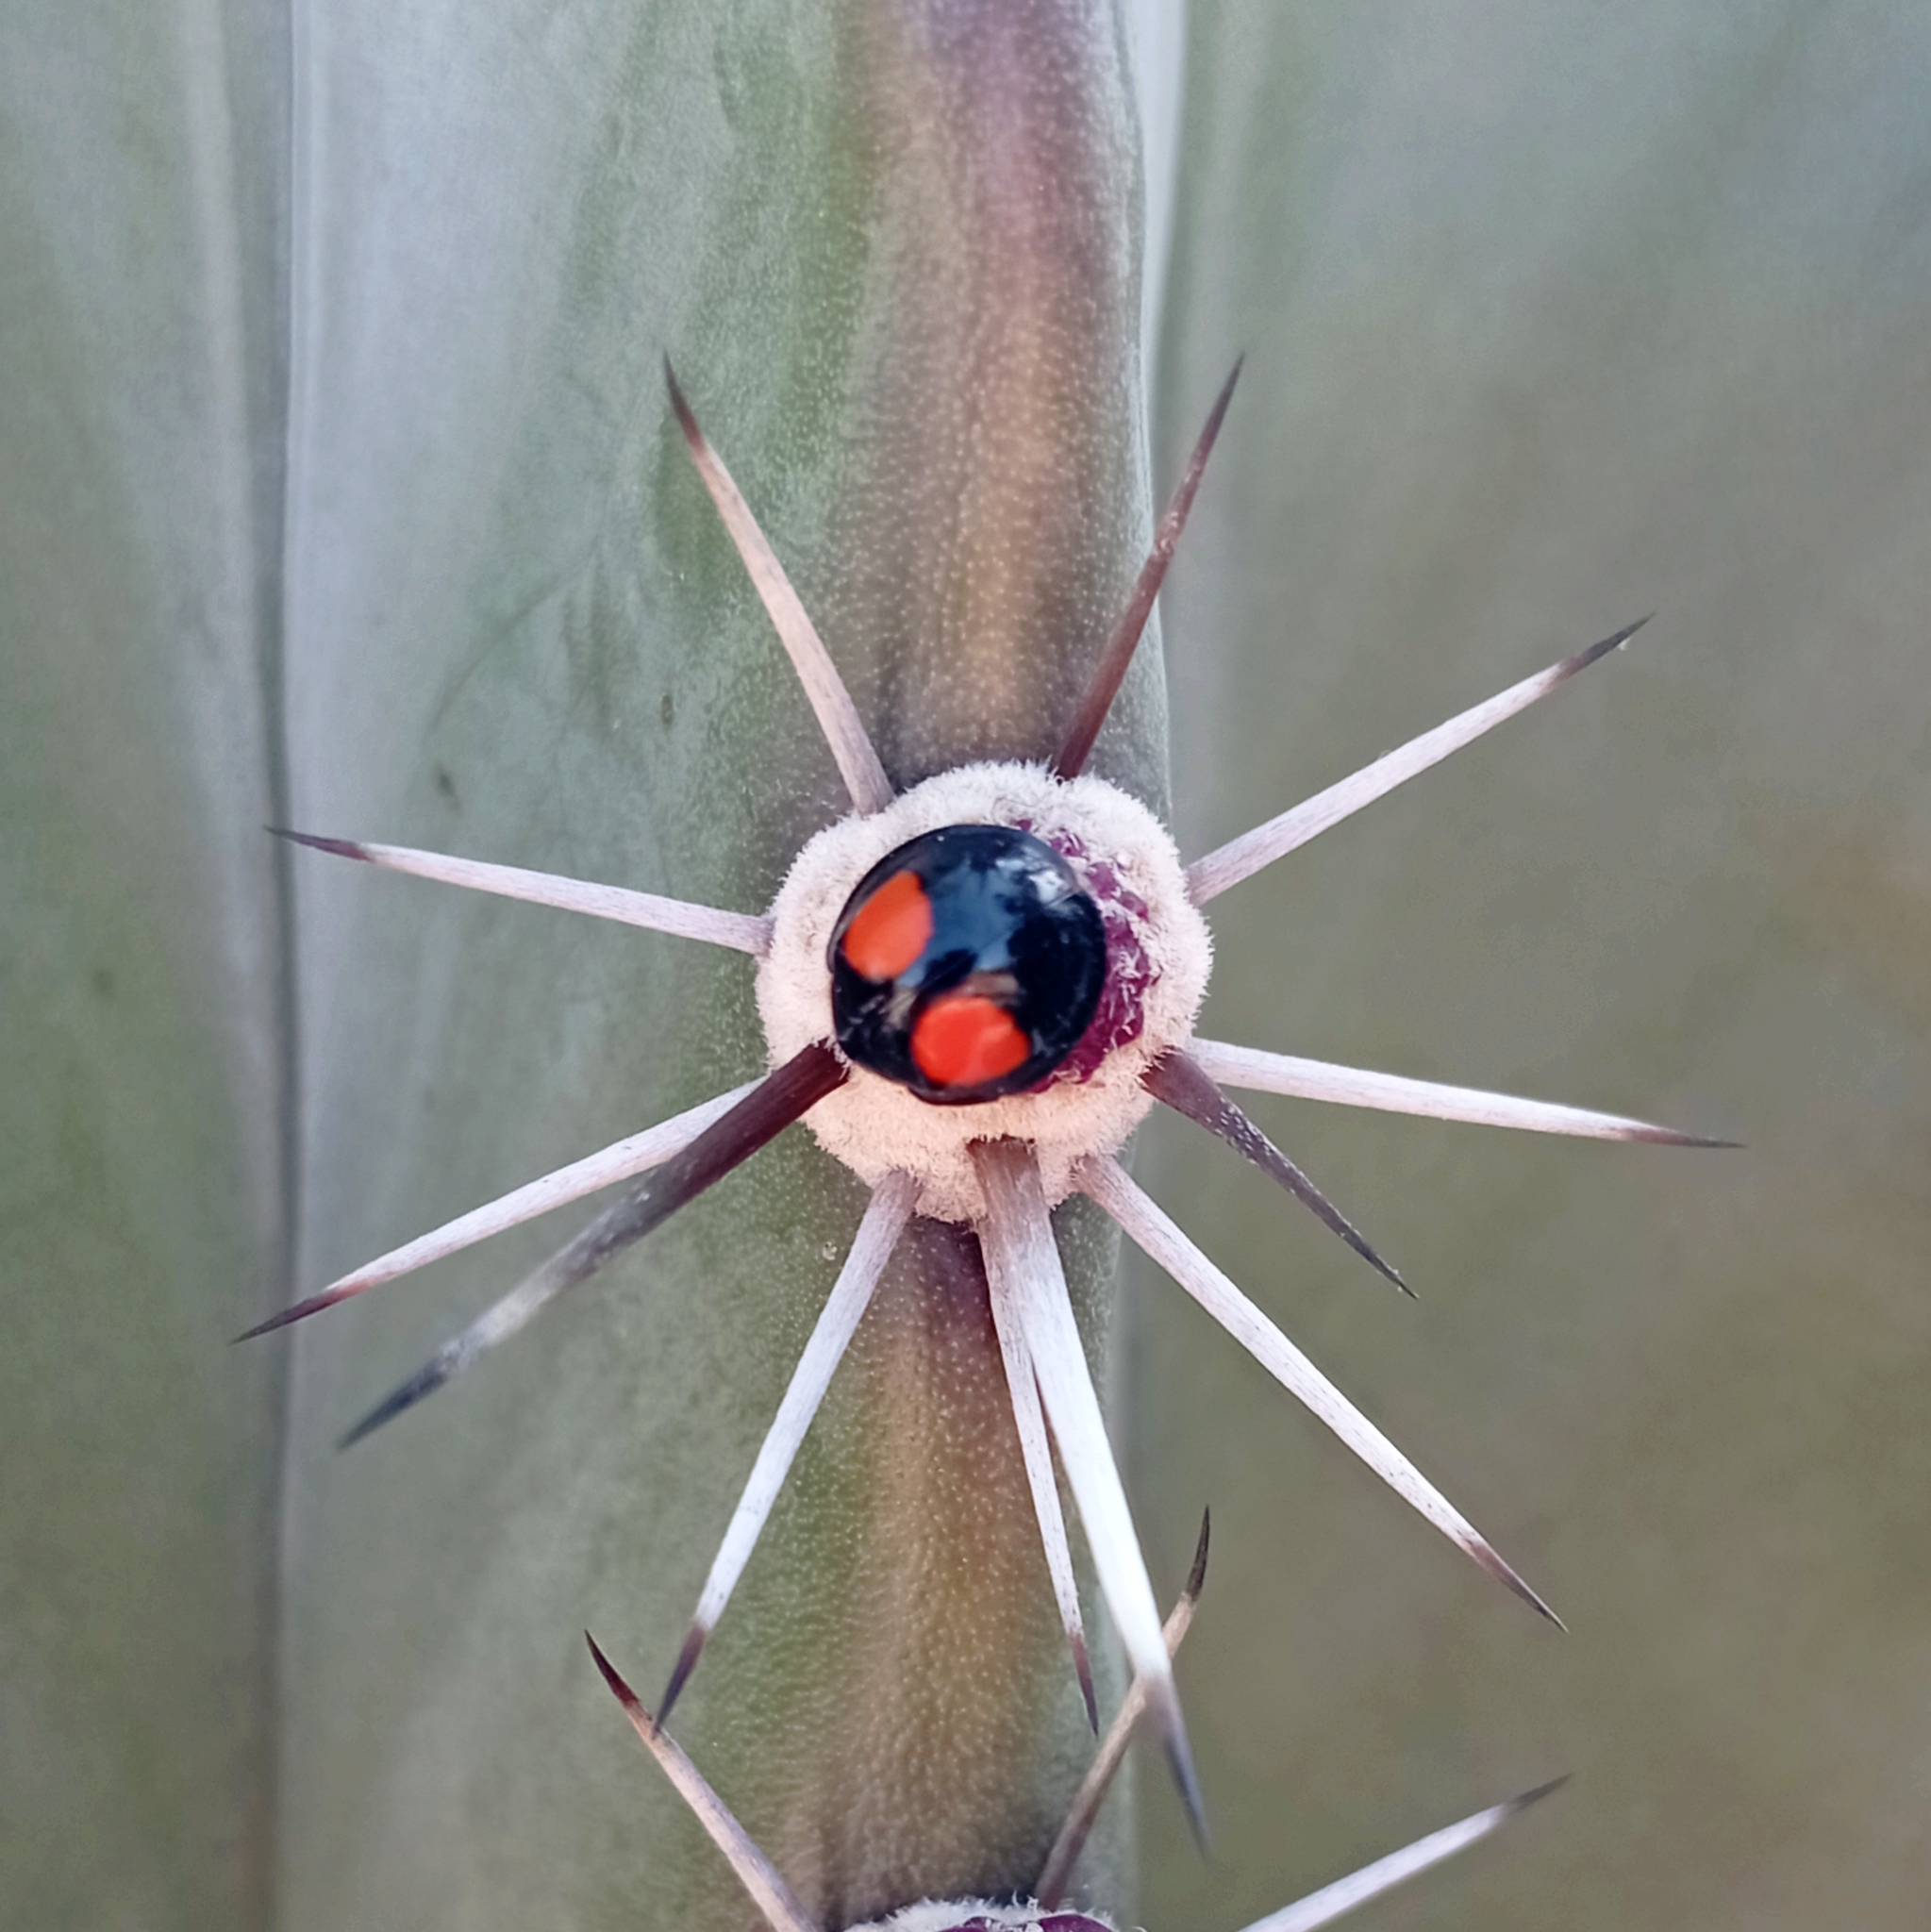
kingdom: Animalia
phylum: Arthropoda
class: Insecta
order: Coleoptera
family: Coccinellidae
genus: Chilocorus
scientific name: Chilocorus cacti
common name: Cactus lady beetle
